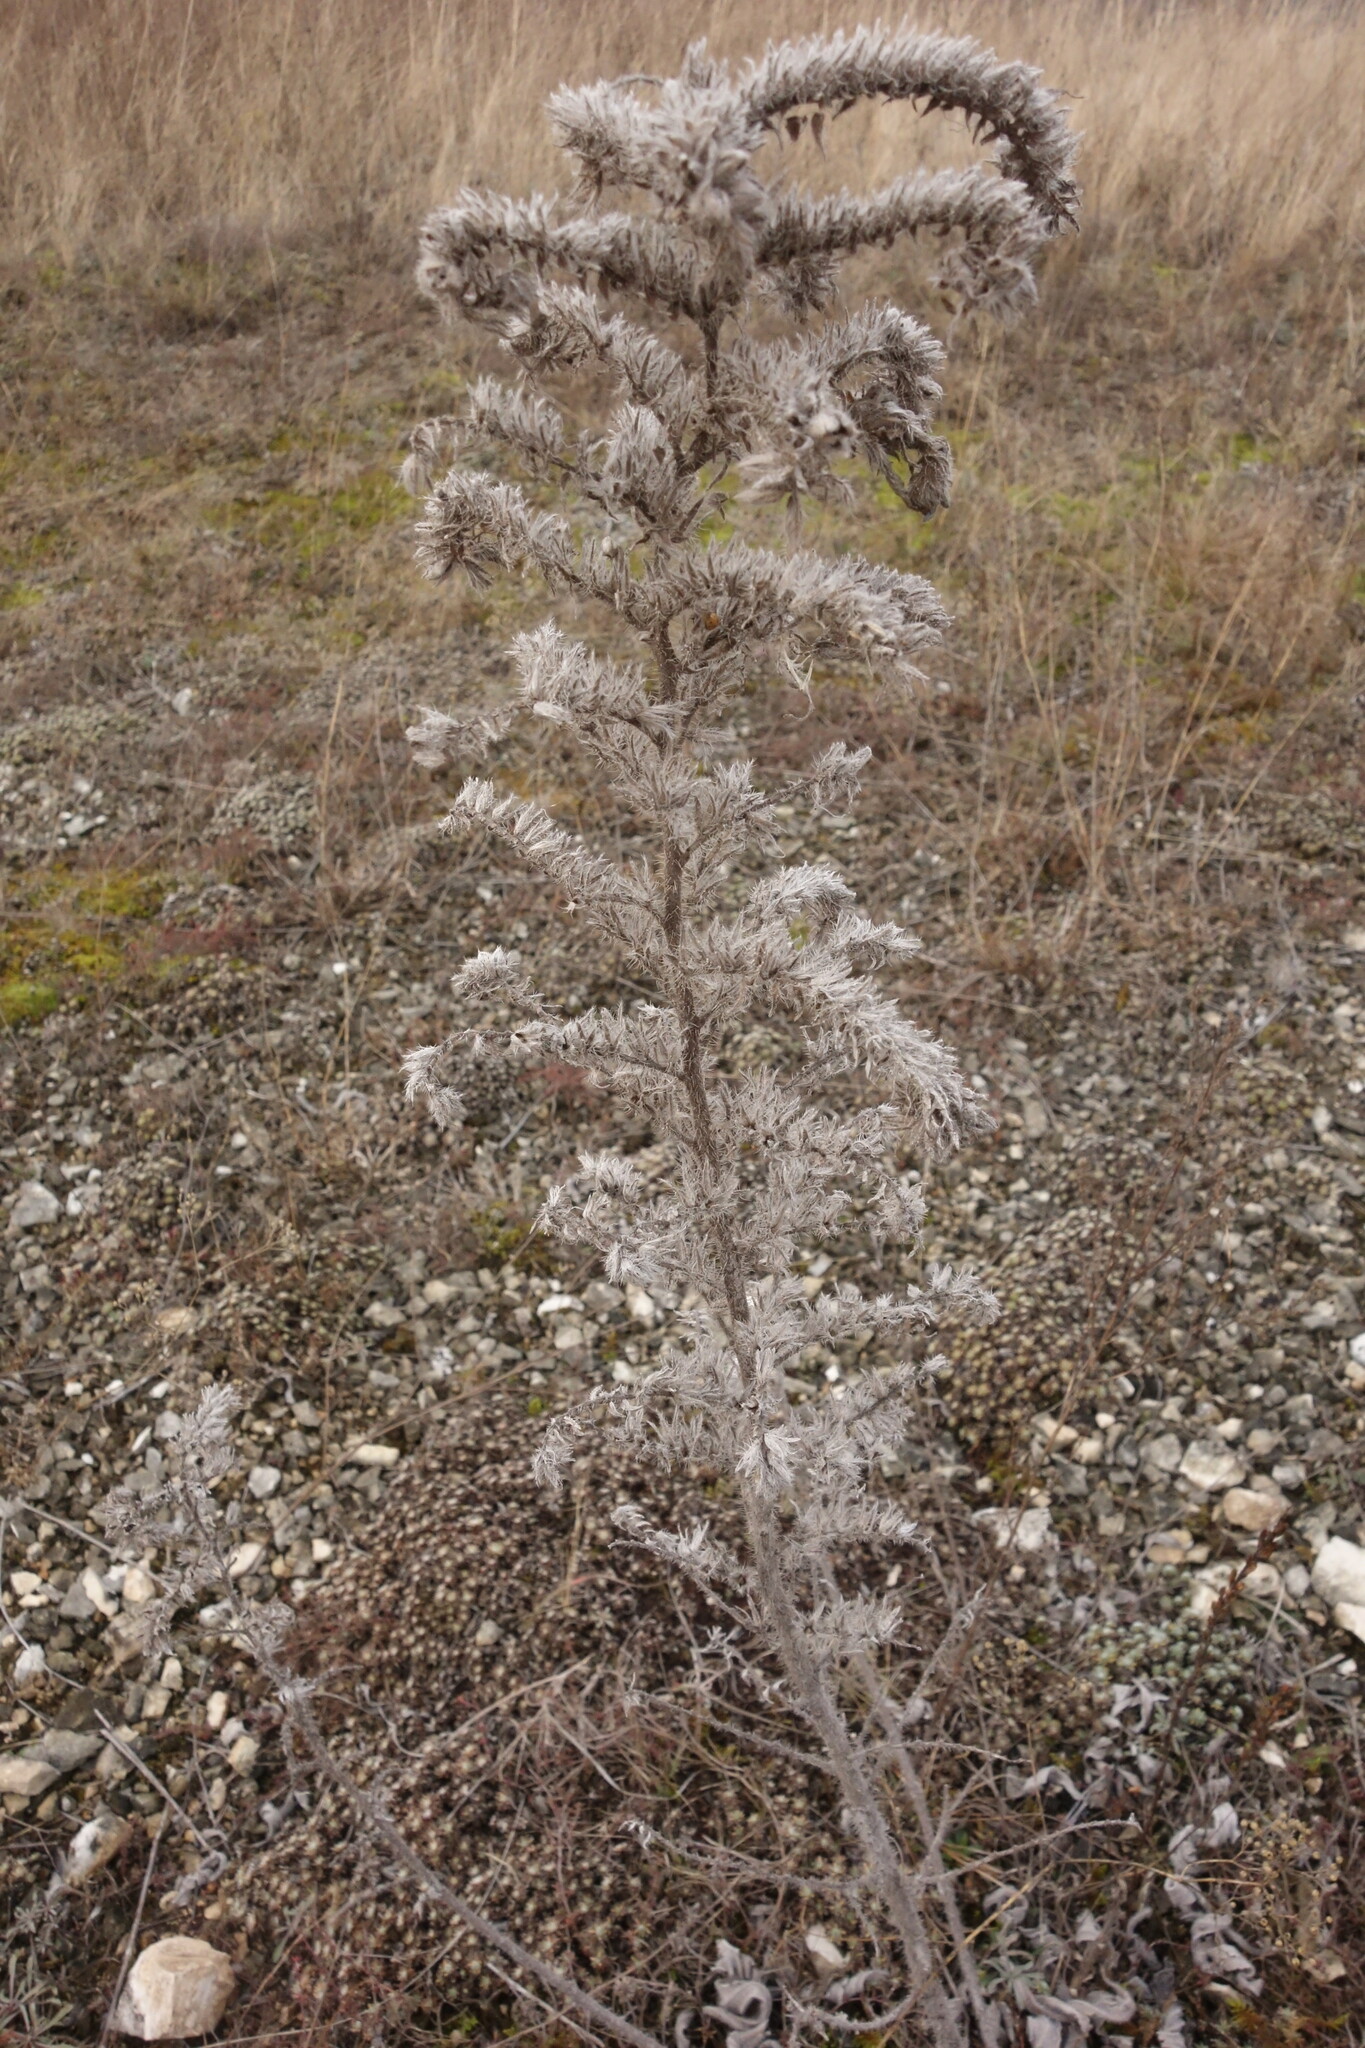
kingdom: Plantae
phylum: Tracheophyta
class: Magnoliopsida
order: Boraginales
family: Boraginaceae
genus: Echium
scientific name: Echium vulgare
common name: Common viper's bugloss
